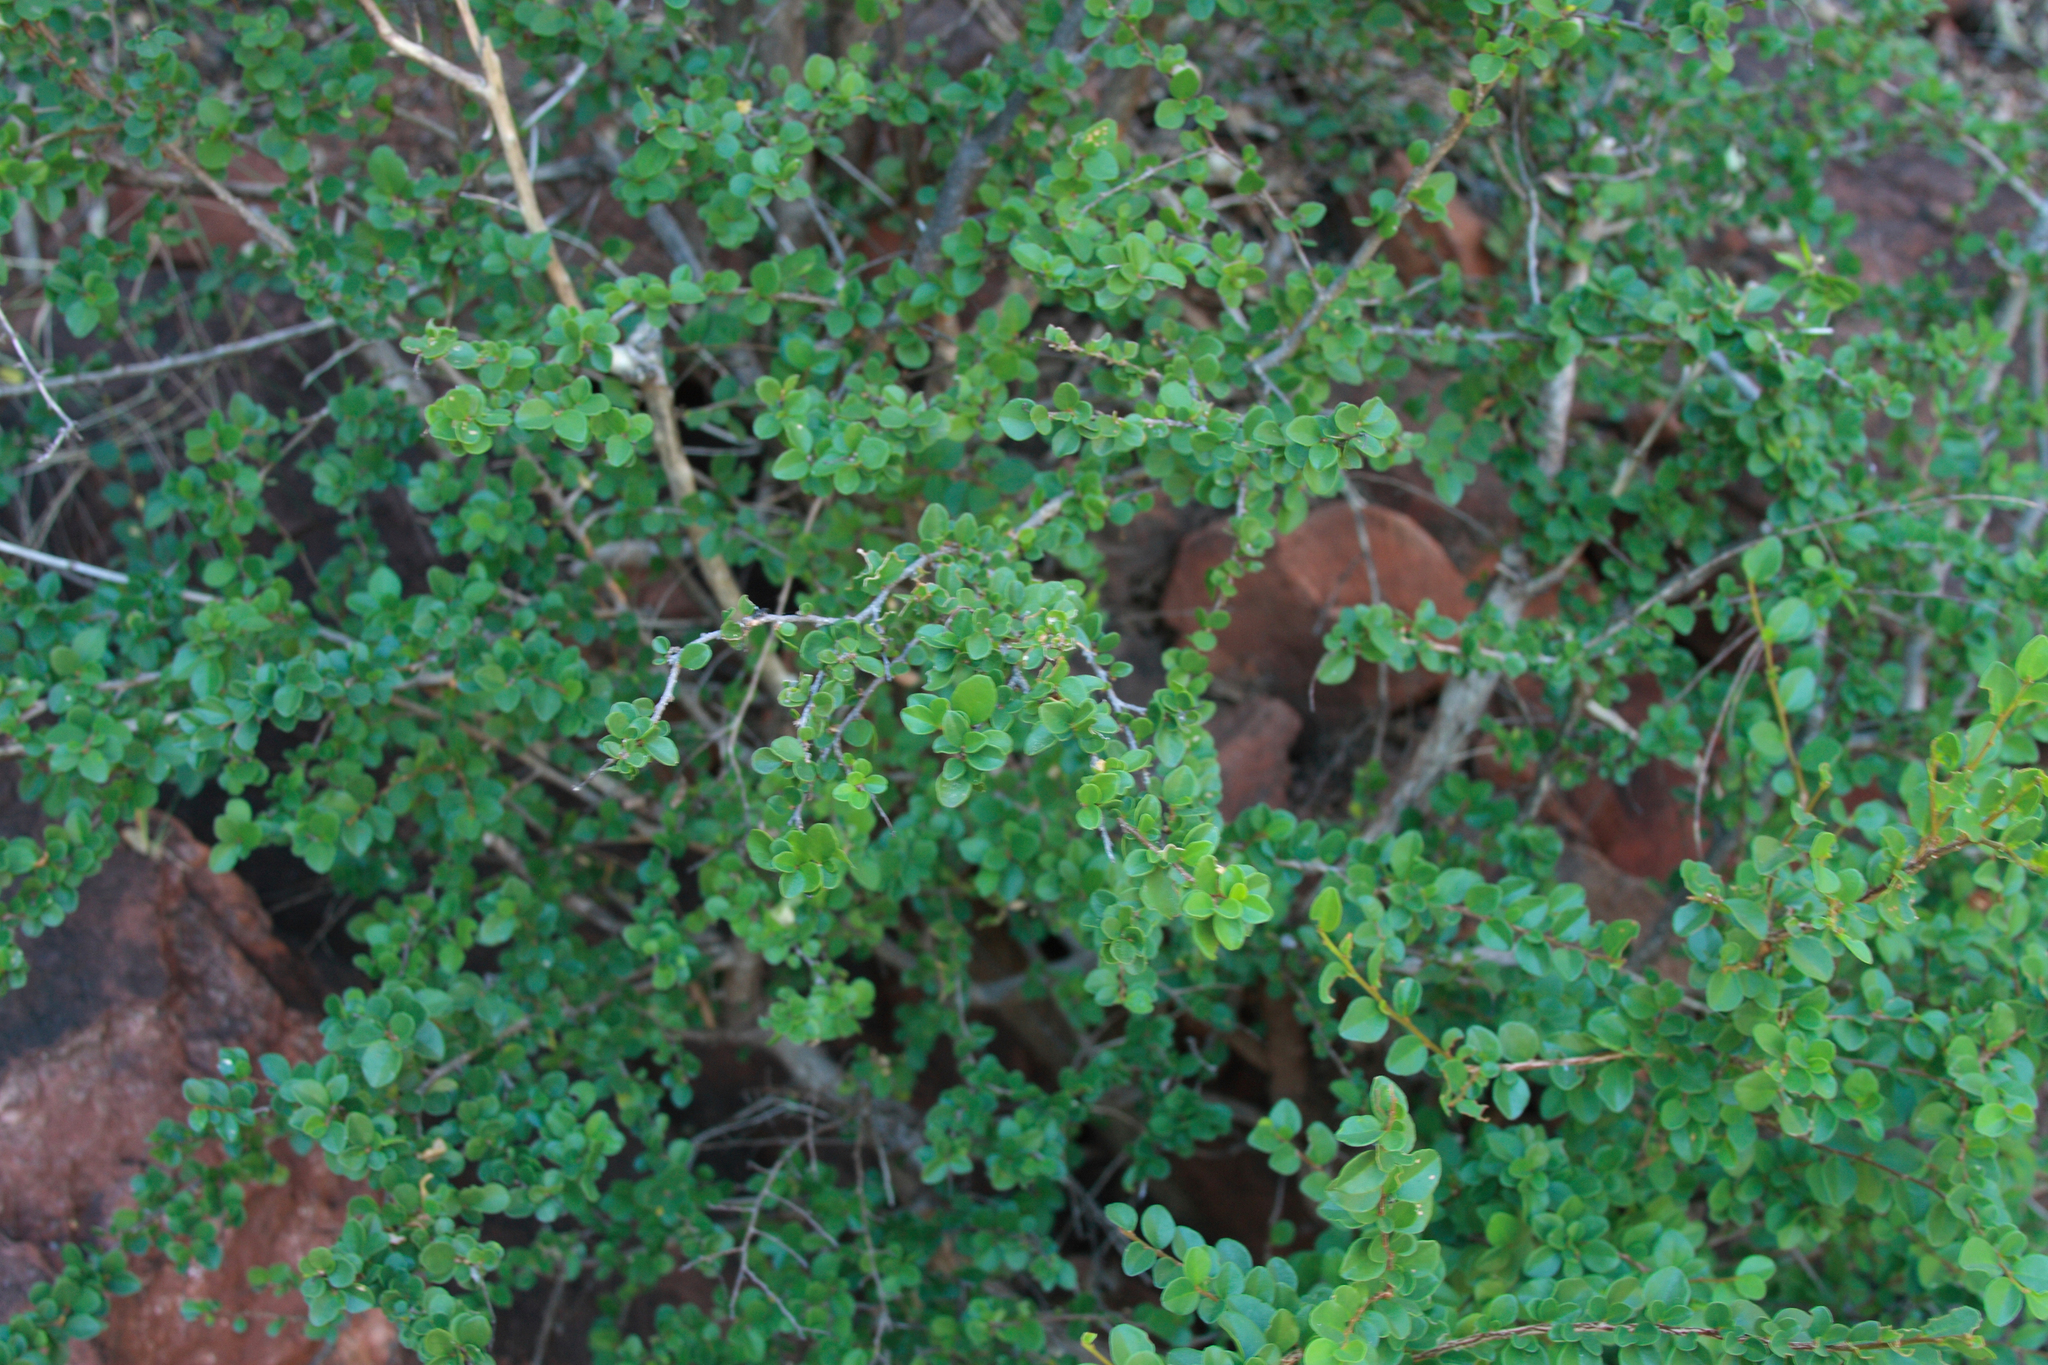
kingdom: Plantae
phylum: Tracheophyta
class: Magnoliopsida
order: Malpighiales
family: Phyllanthaceae
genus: Antidesma
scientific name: Antidesma parvifolium
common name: Blackcurrant
